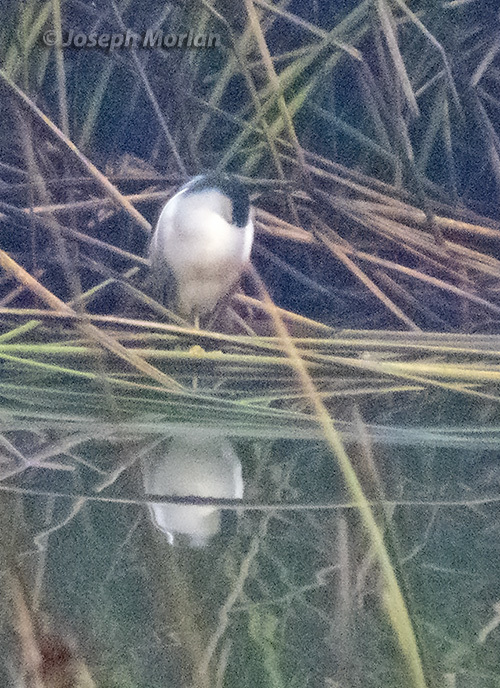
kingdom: Animalia
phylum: Chordata
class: Aves
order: Pelecaniformes
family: Ardeidae
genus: Nycticorax
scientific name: Nycticorax nycticorax
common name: Black-crowned night heron
